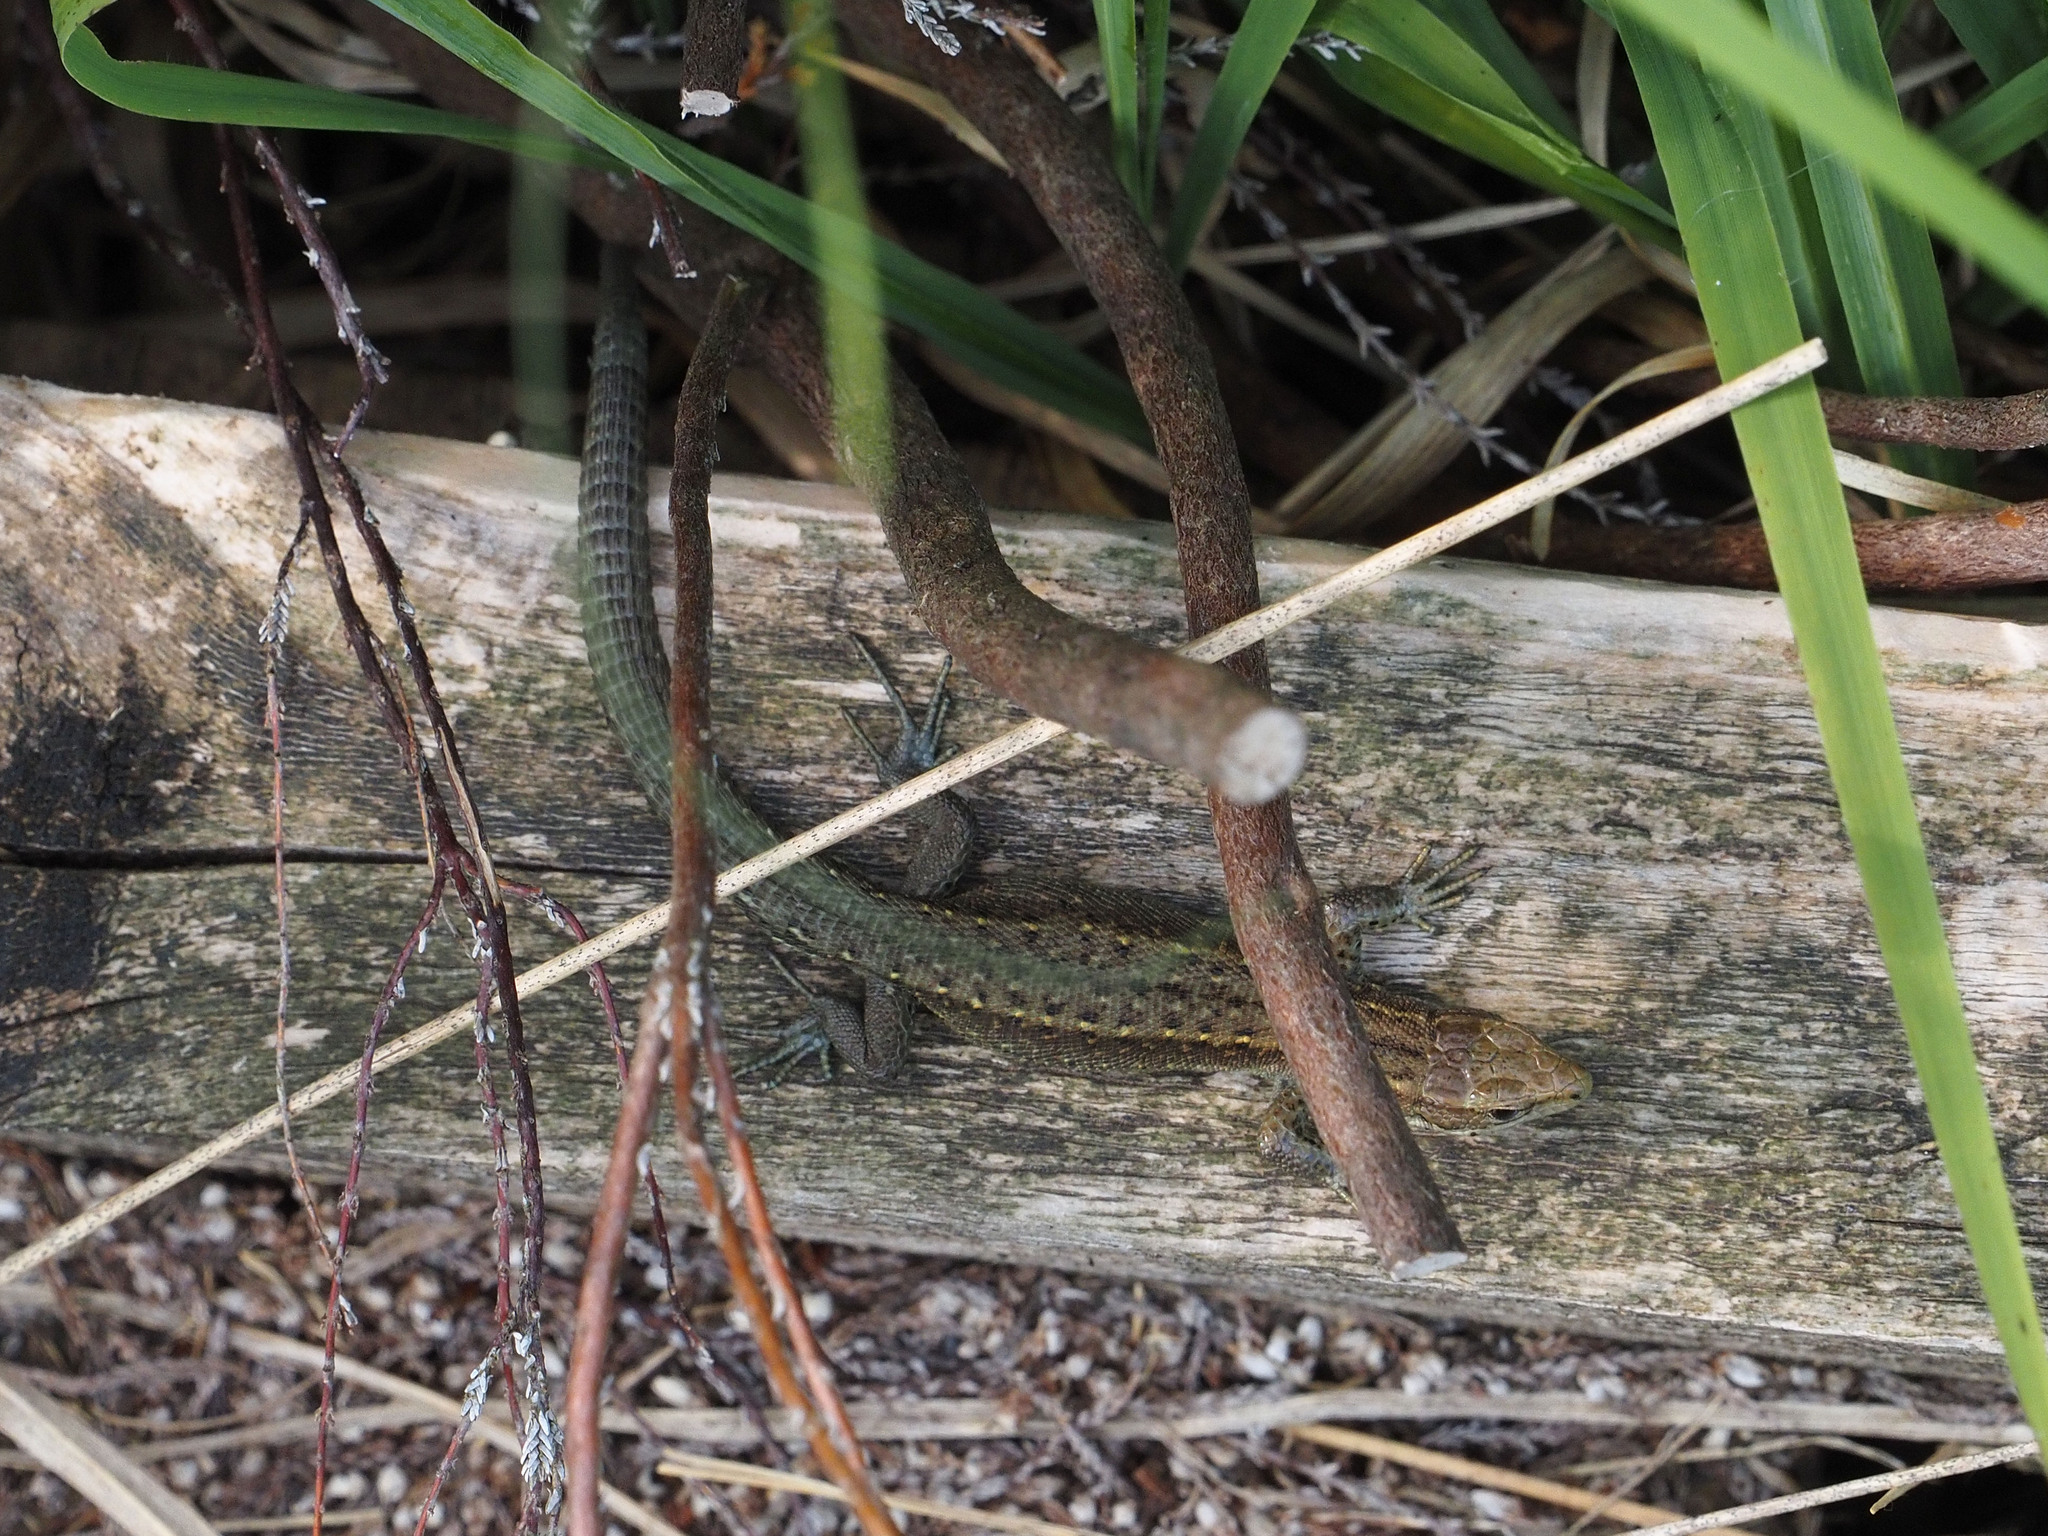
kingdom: Animalia
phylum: Chordata
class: Squamata
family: Lacertidae
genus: Zootoca
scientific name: Zootoca vivipara
